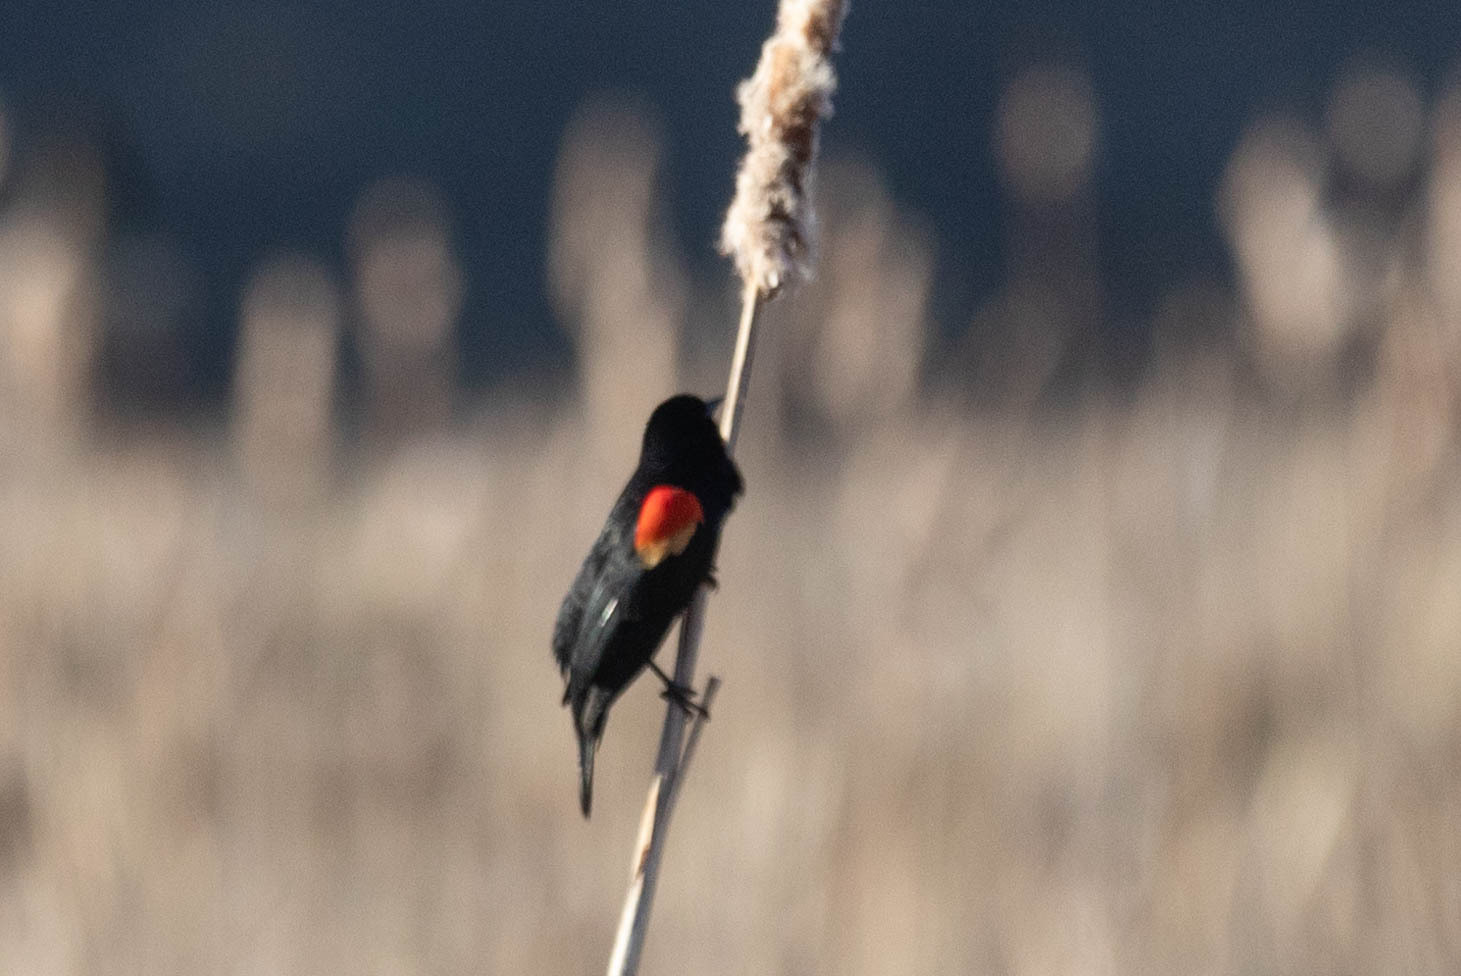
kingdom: Animalia
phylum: Chordata
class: Aves
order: Passeriformes
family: Icteridae
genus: Agelaius
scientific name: Agelaius phoeniceus
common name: Red-winged blackbird
